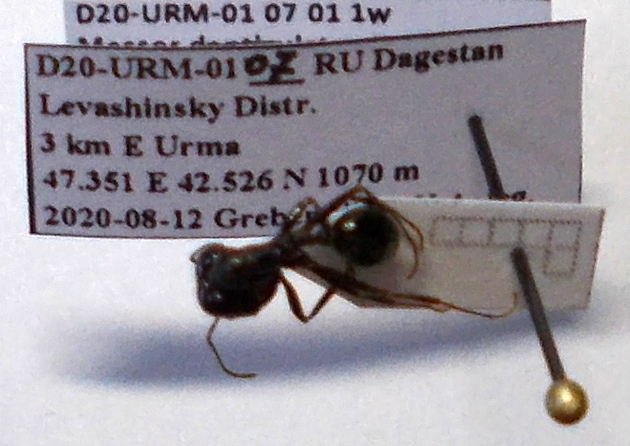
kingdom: Animalia
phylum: Arthropoda
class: Insecta
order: Hymenoptera
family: Formicidae
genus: Messor
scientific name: Messor structor
